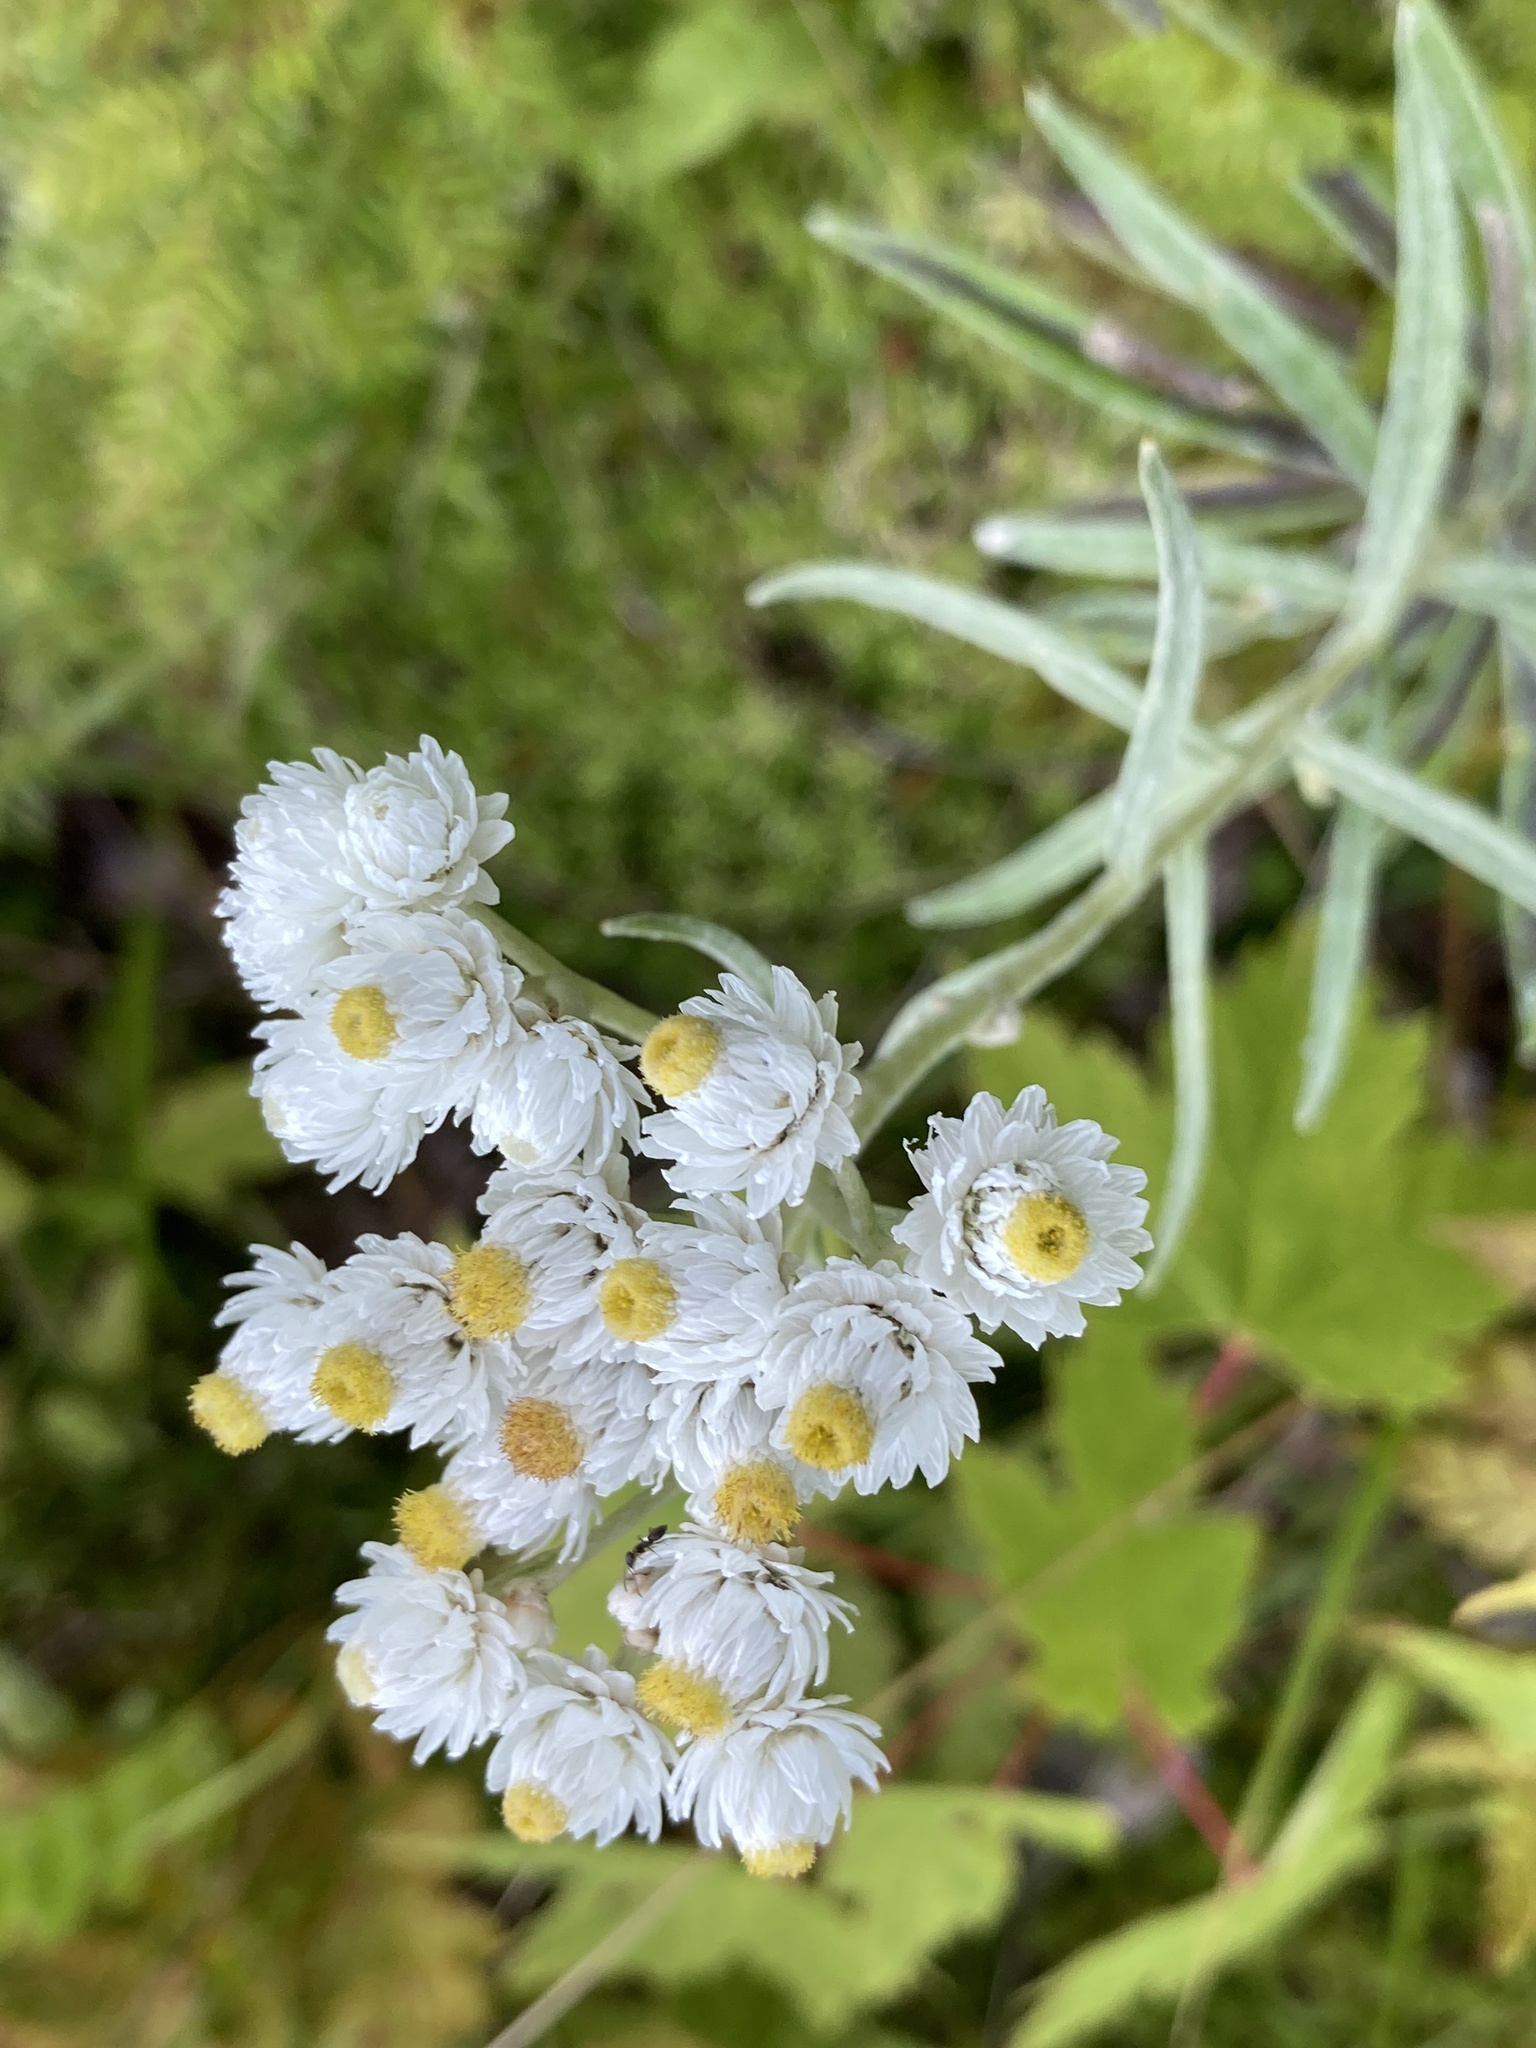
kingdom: Plantae
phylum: Tracheophyta
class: Magnoliopsida
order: Asterales
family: Asteraceae
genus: Anaphalis
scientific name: Anaphalis margaritacea
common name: Pearly everlasting
